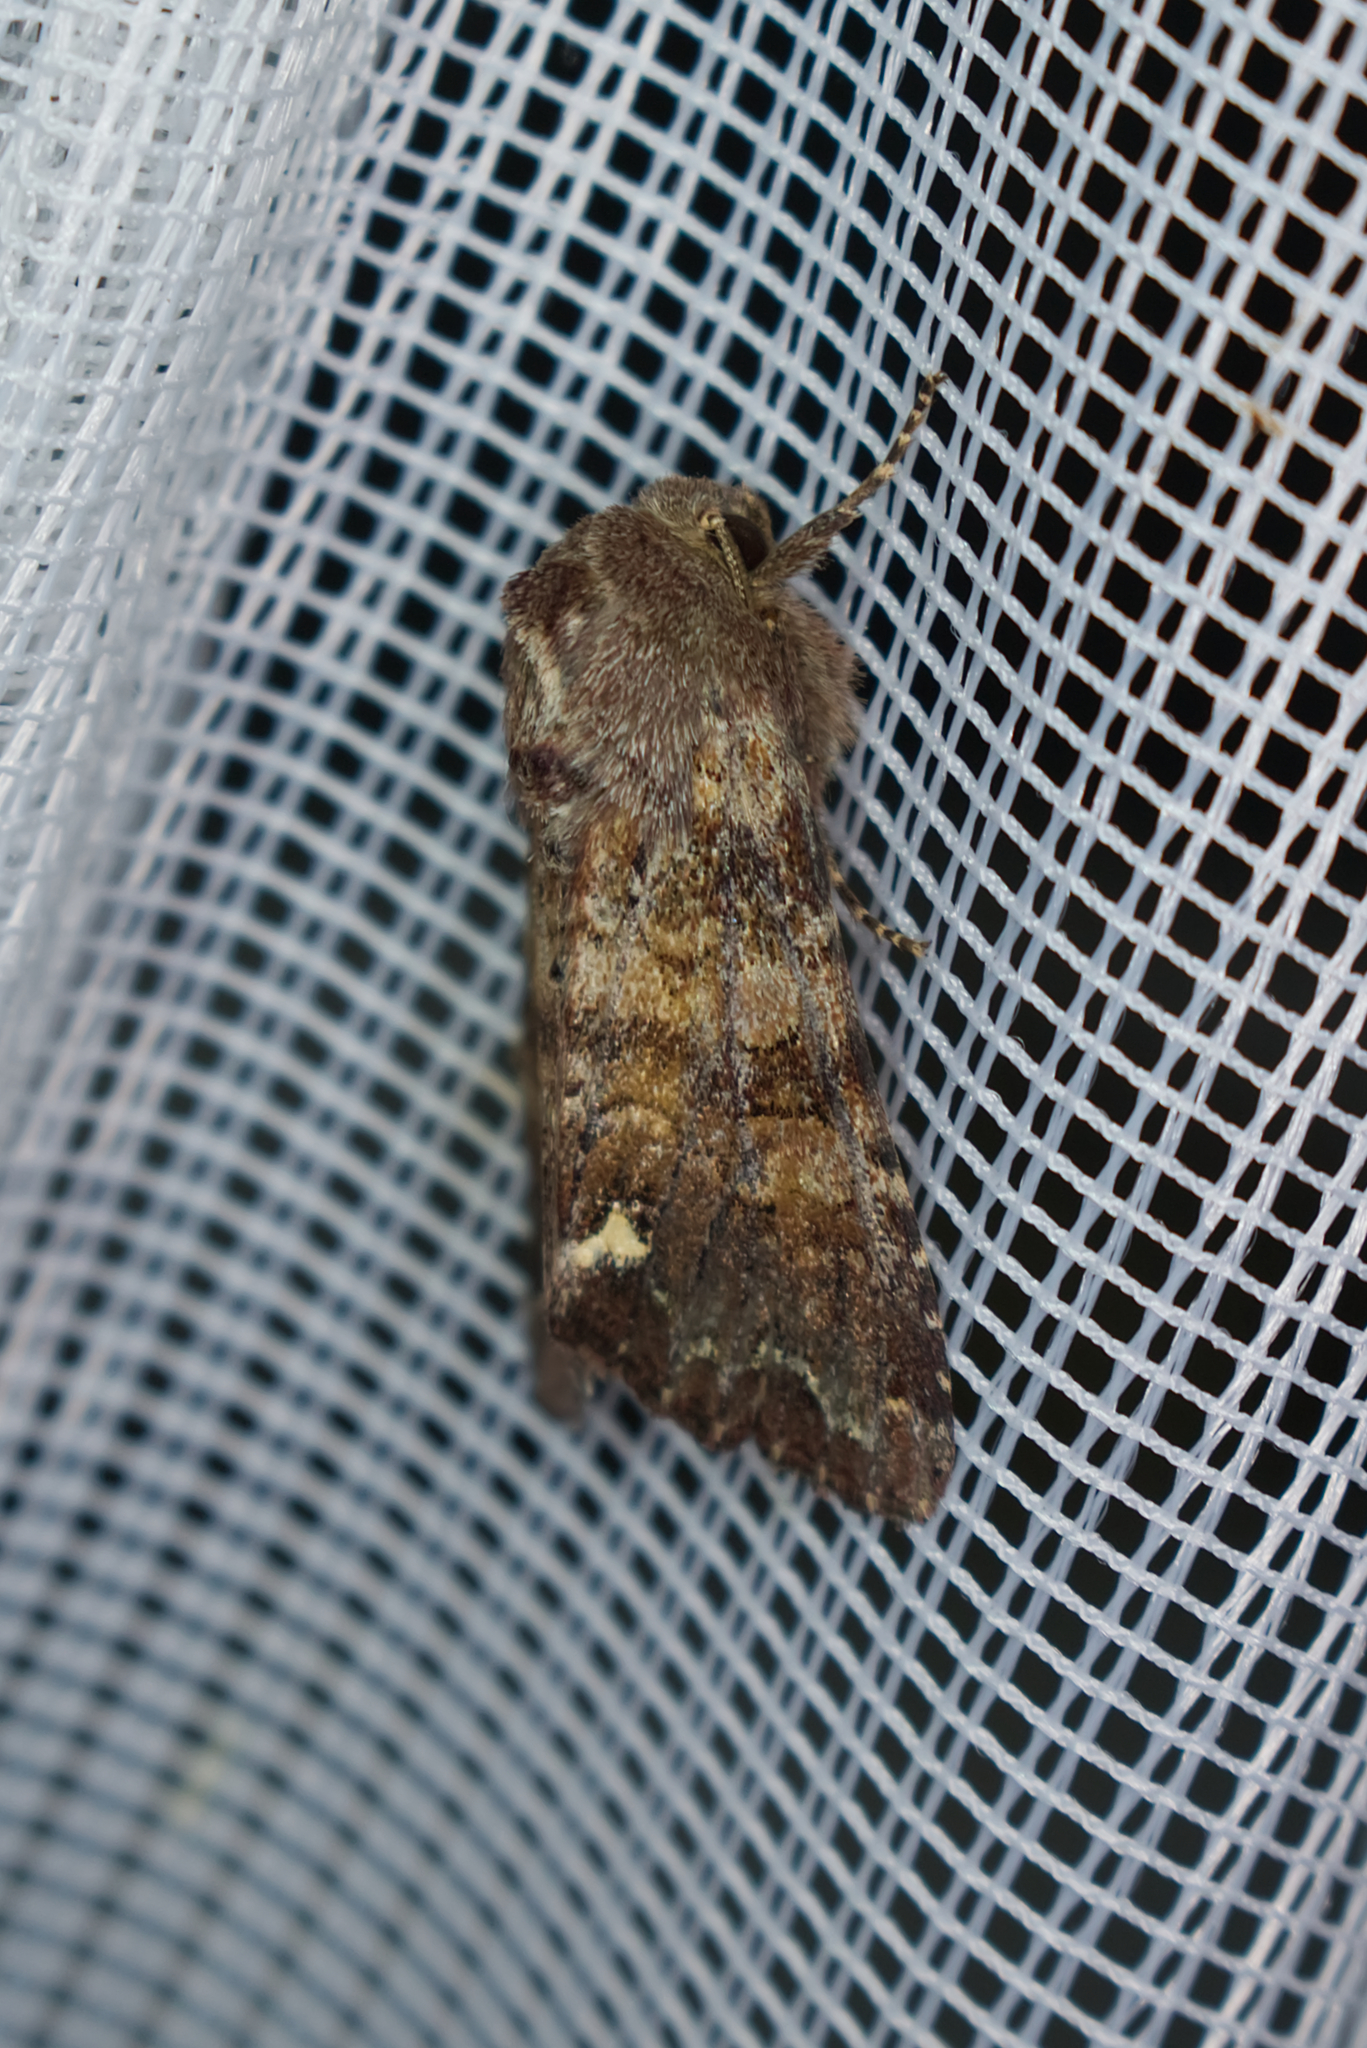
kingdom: Animalia
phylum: Arthropoda
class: Insecta
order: Lepidoptera
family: Noctuidae
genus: Ceramica
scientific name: Ceramica pisi
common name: Broom moth
